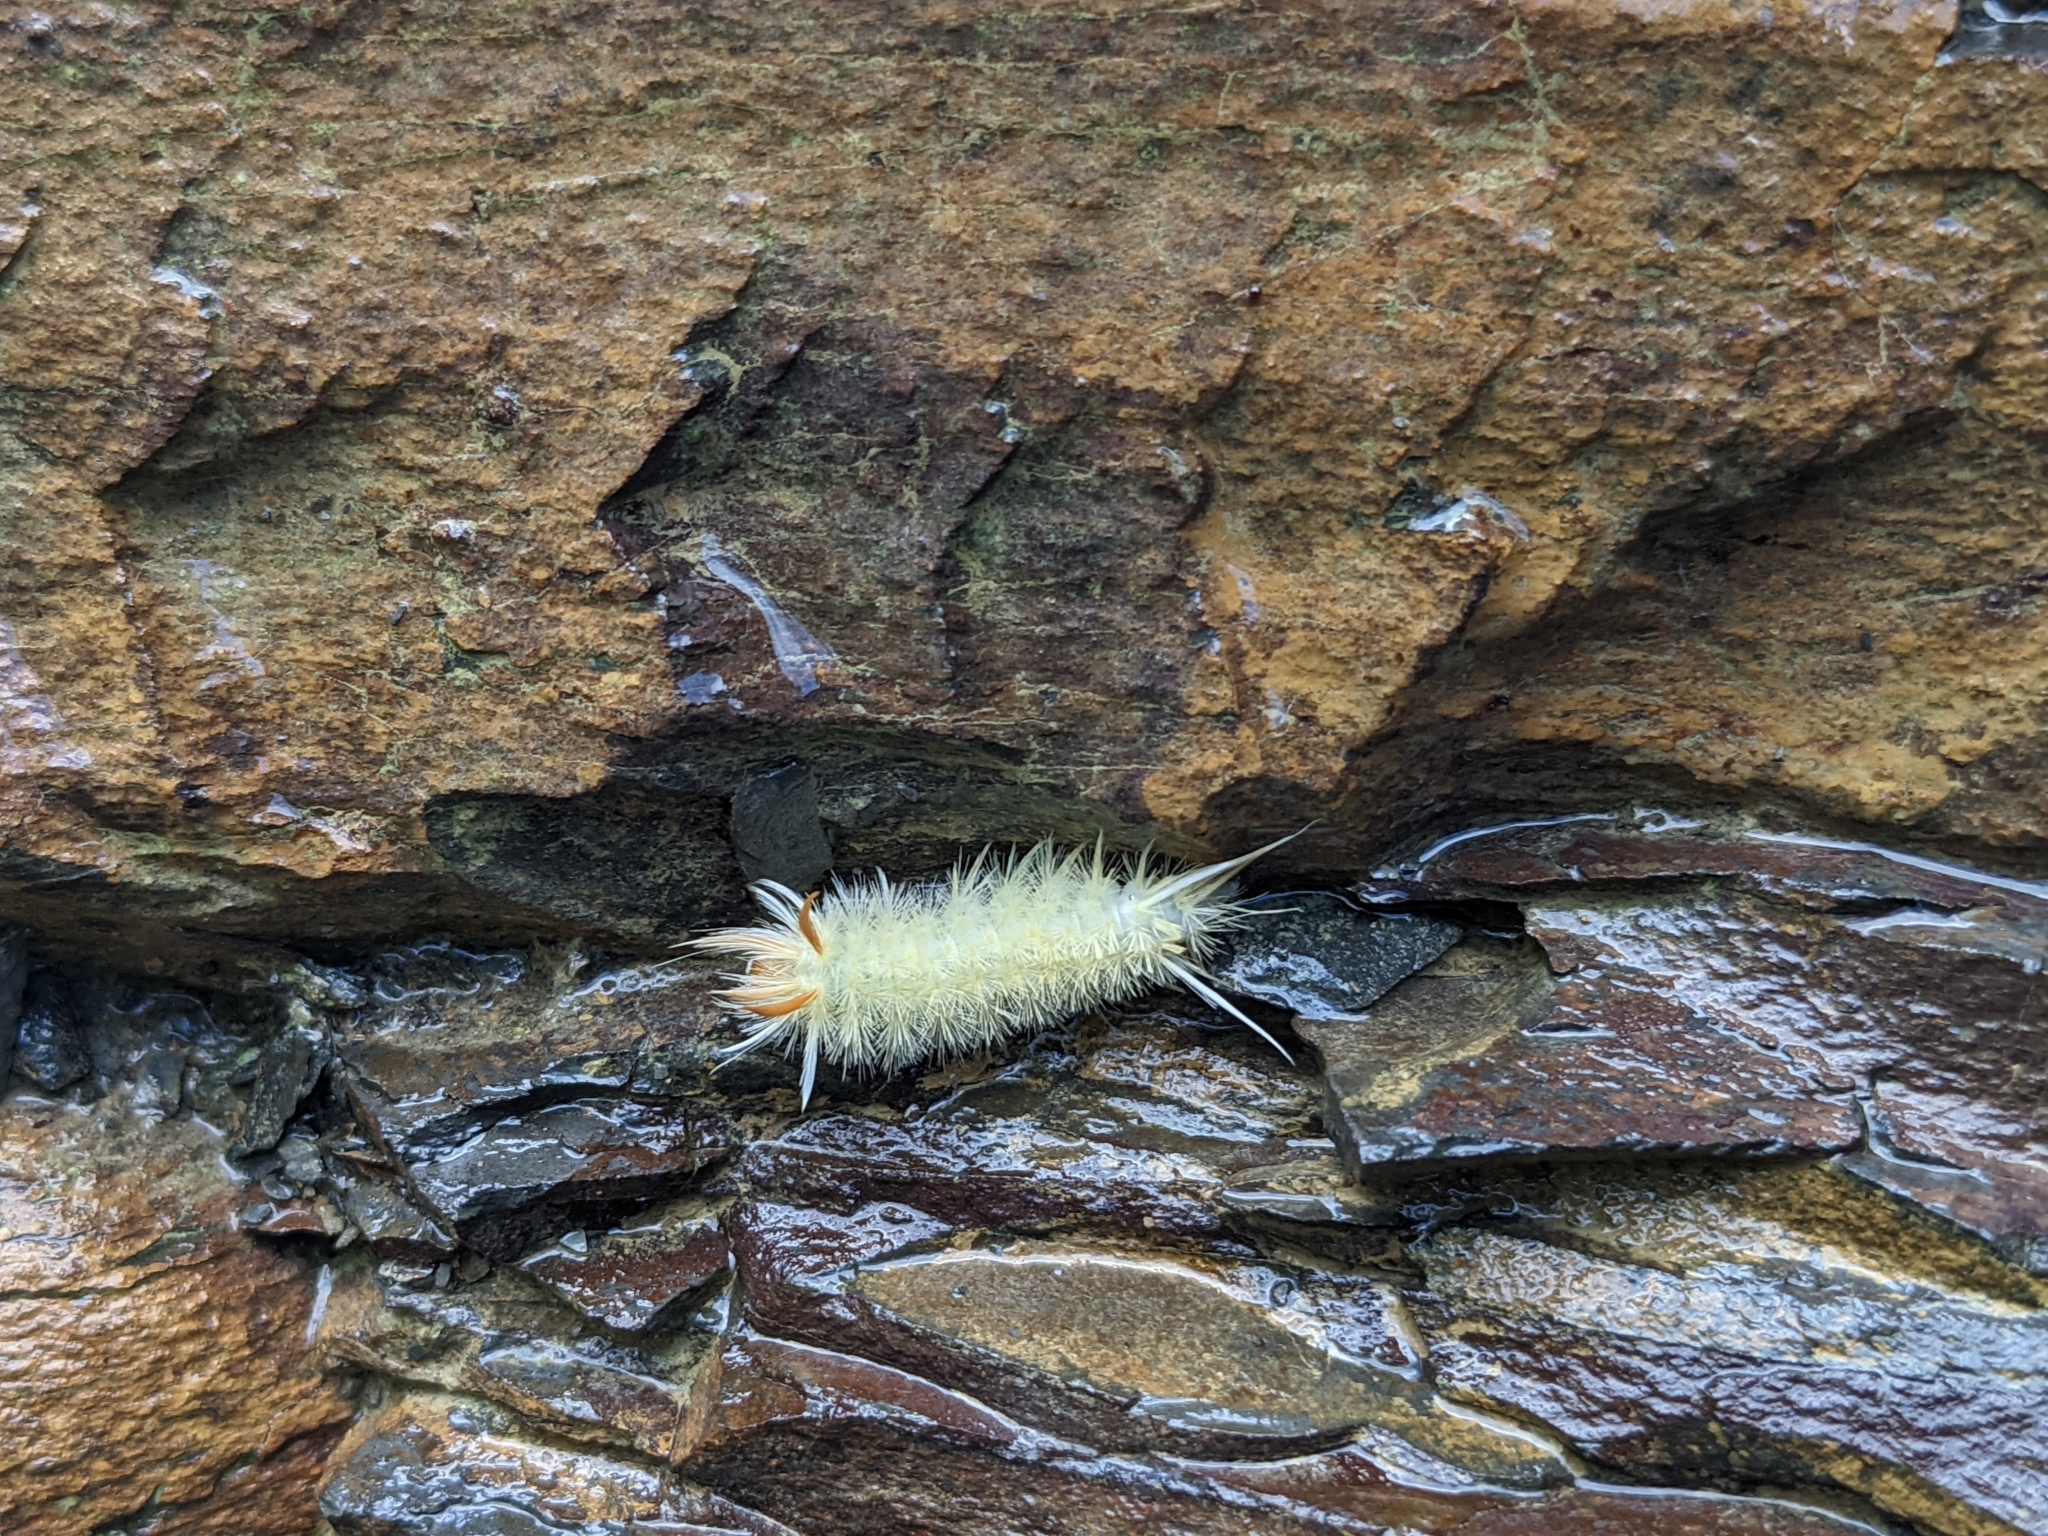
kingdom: Animalia
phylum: Arthropoda
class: Insecta
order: Lepidoptera
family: Erebidae
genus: Halysidota
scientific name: Halysidota harrisii
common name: Sycamore tussock moth
